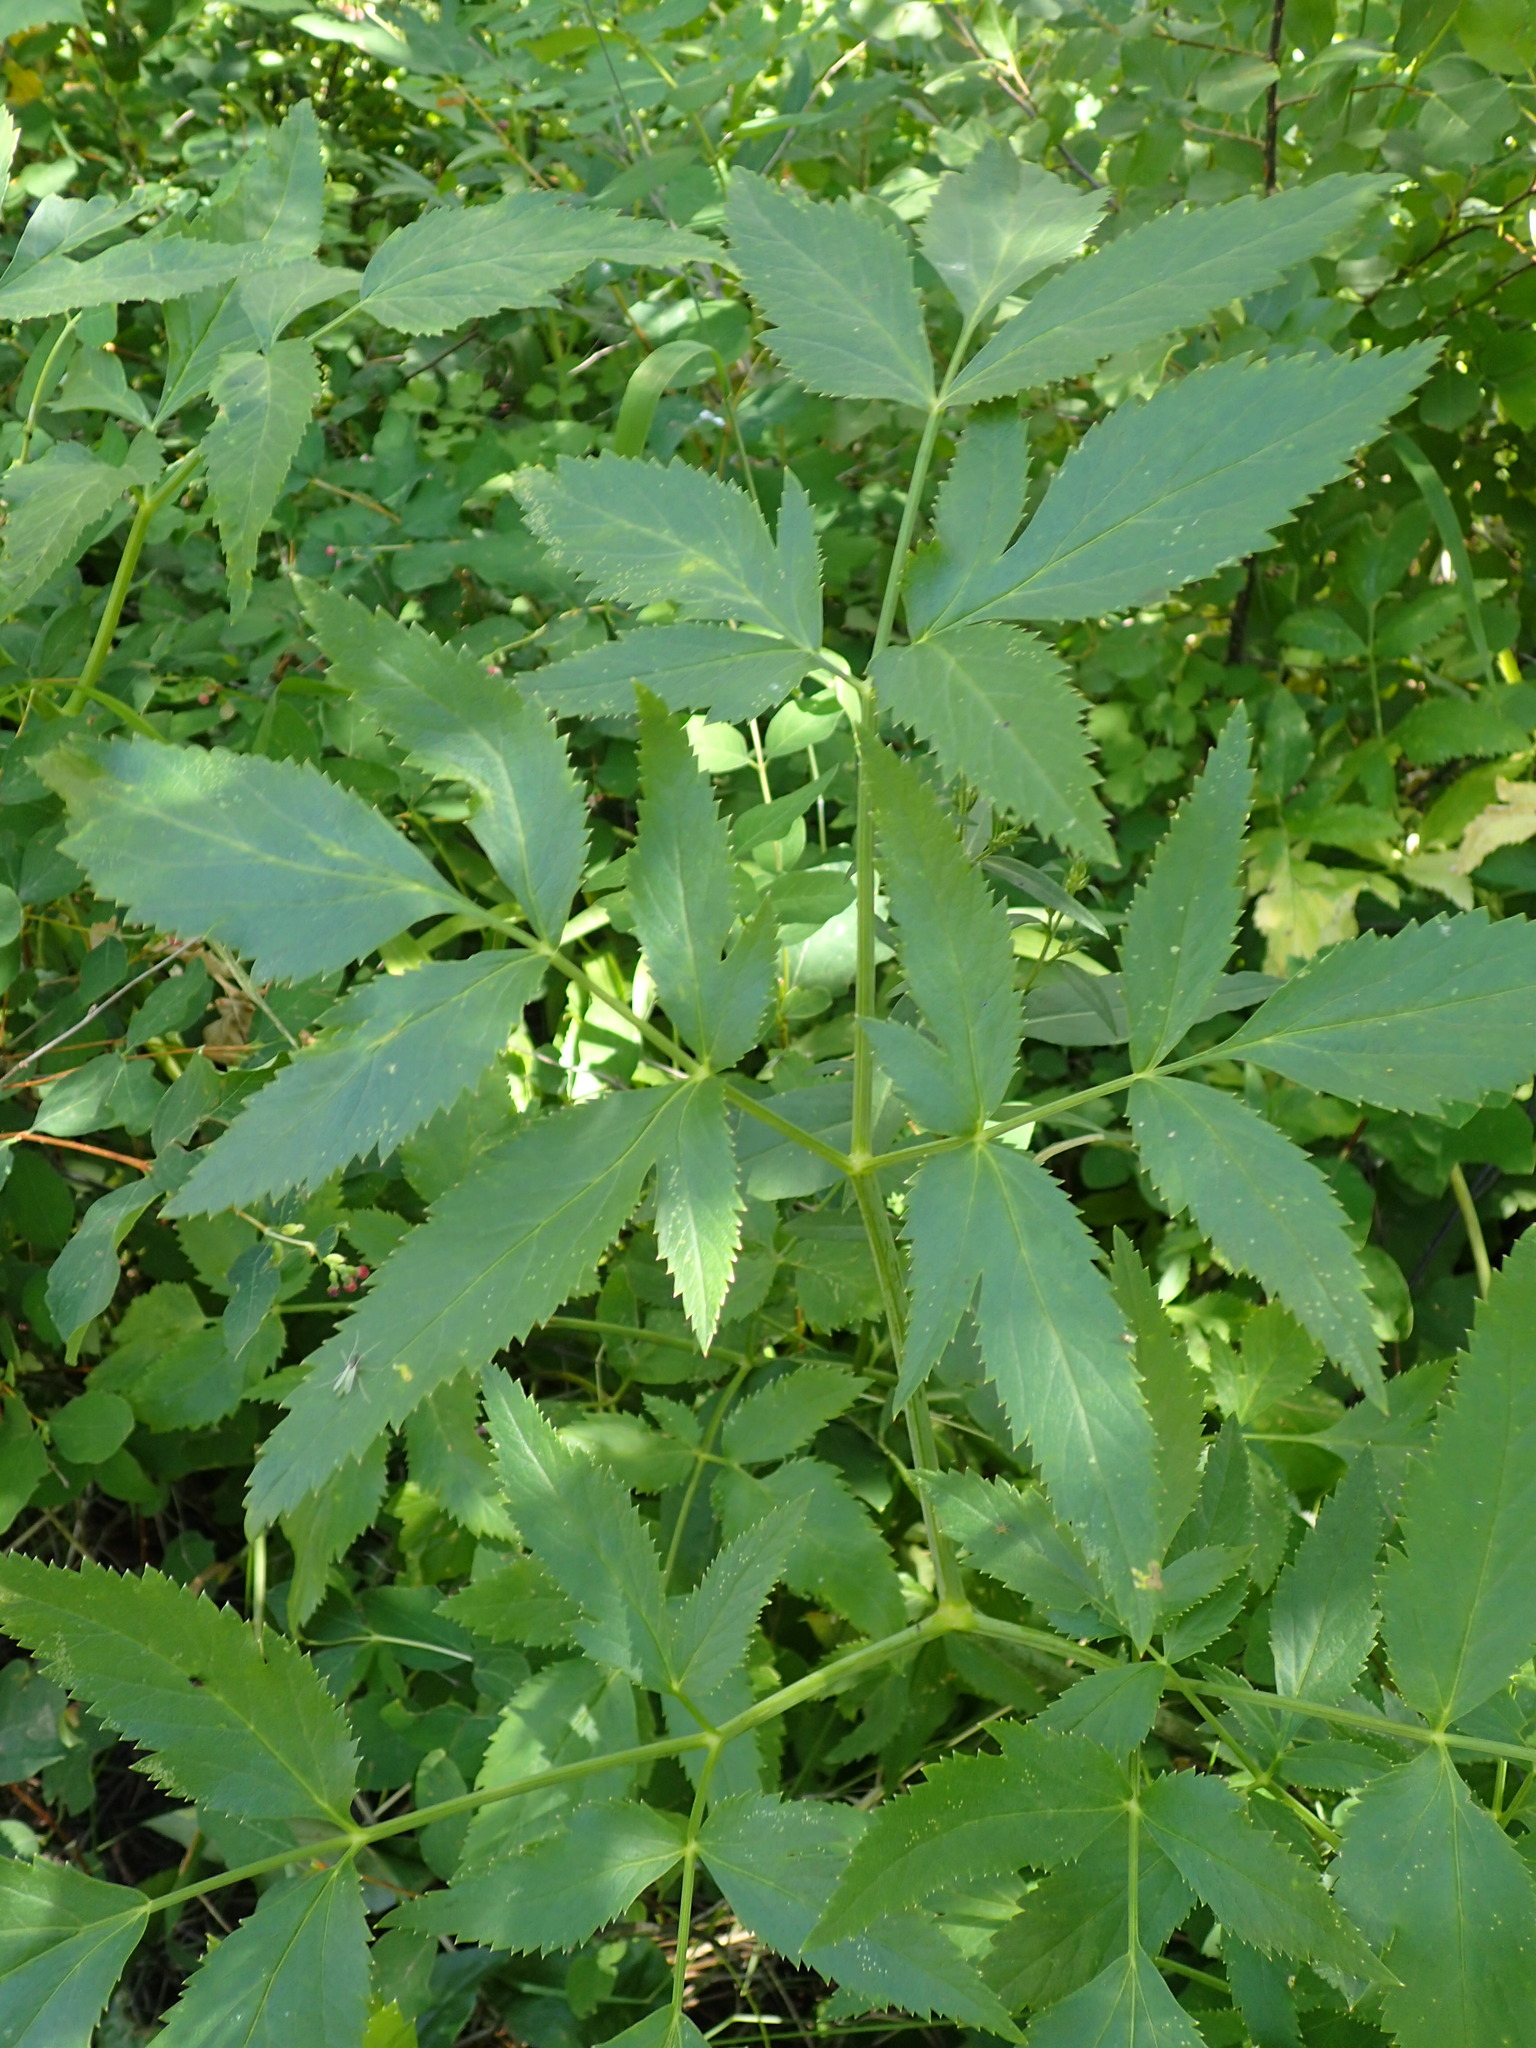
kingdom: Plantae
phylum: Tracheophyta
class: Magnoliopsida
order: Apiales
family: Apiaceae
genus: Angelica
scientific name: Angelica arguta
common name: Lyall's angelica
